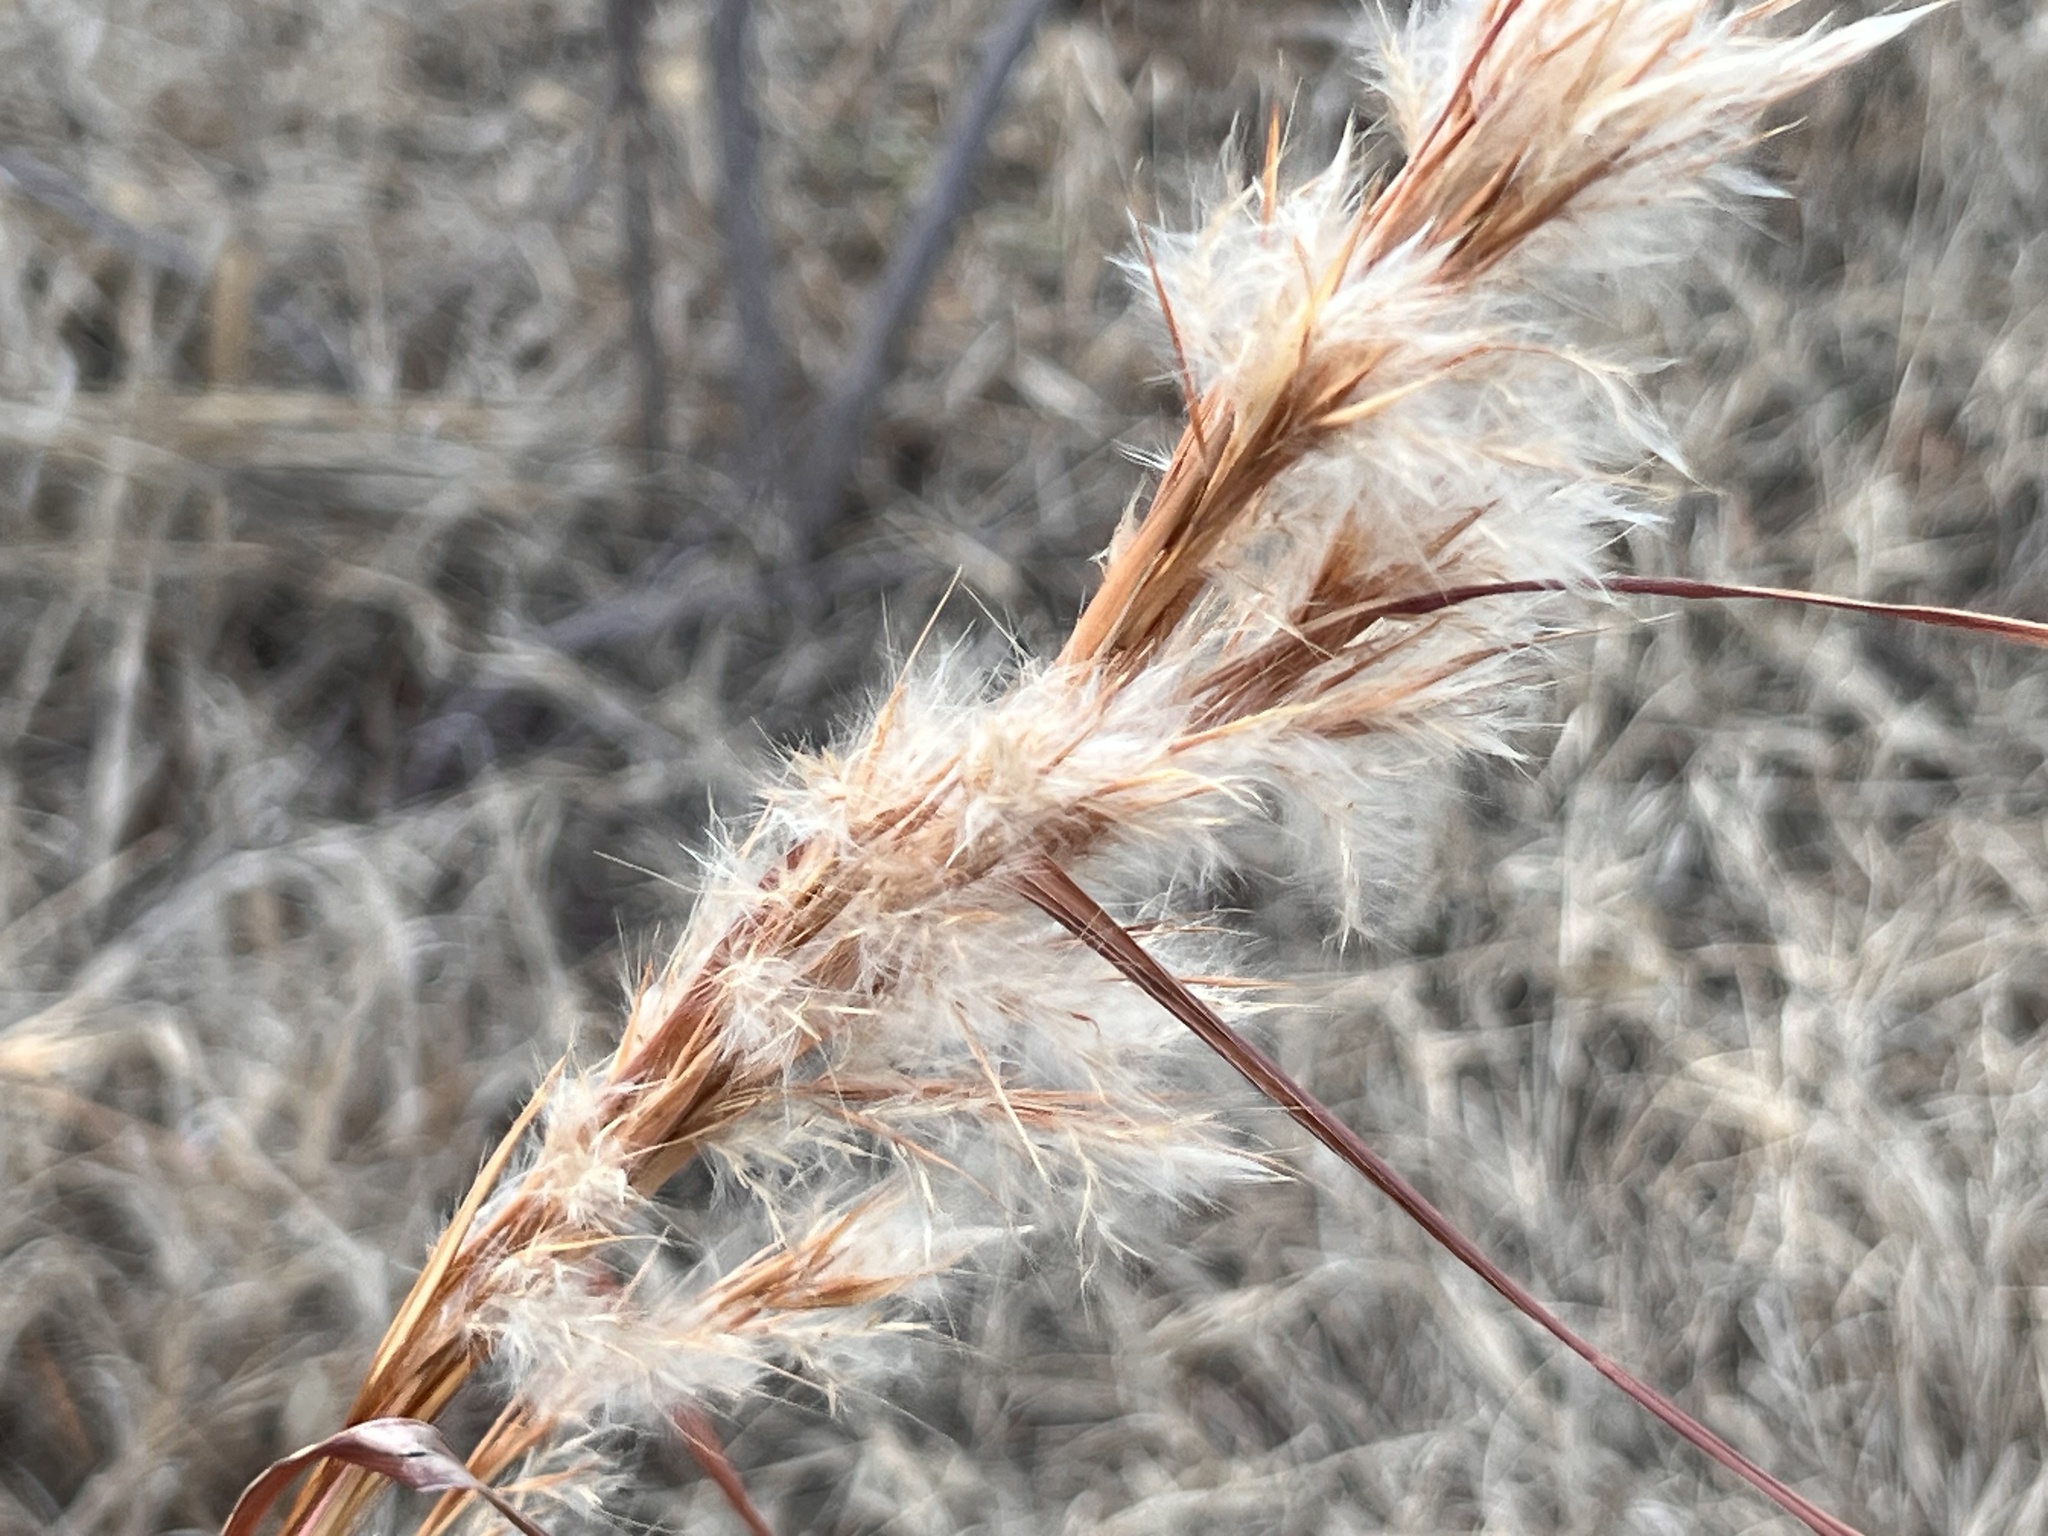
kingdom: Plantae
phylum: Tracheophyta
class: Liliopsida
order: Poales
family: Poaceae
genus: Andropogon
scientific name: Andropogon tenuispatheus
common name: Bushy bluestem
